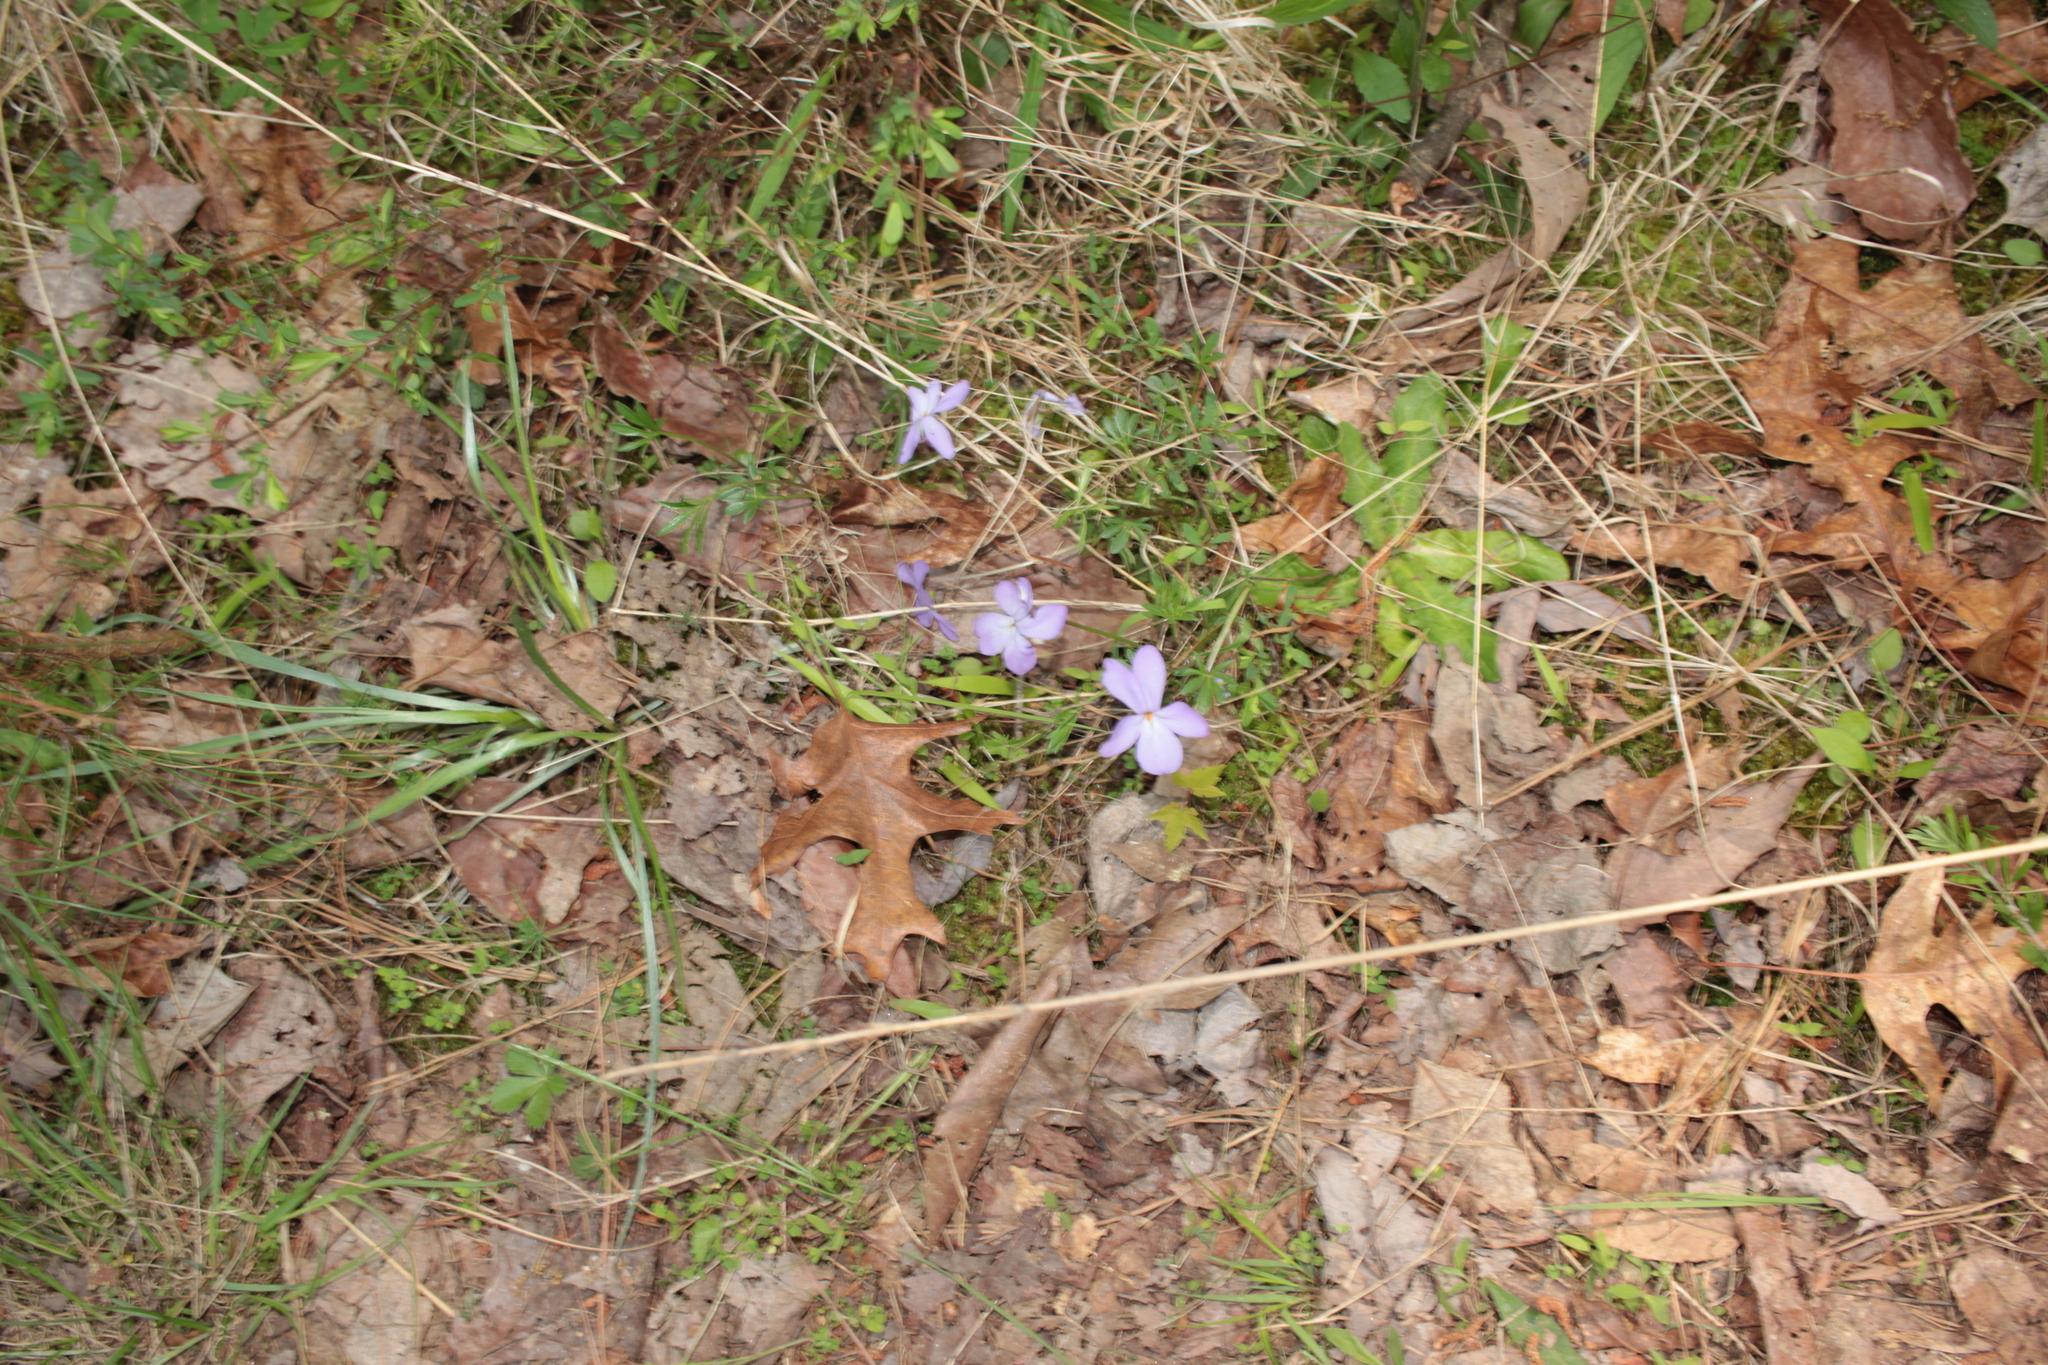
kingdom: Plantae
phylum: Tracheophyta
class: Magnoliopsida
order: Malpighiales
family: Violaceae
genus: Viola
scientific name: Viola pedata
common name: Pansy violet
